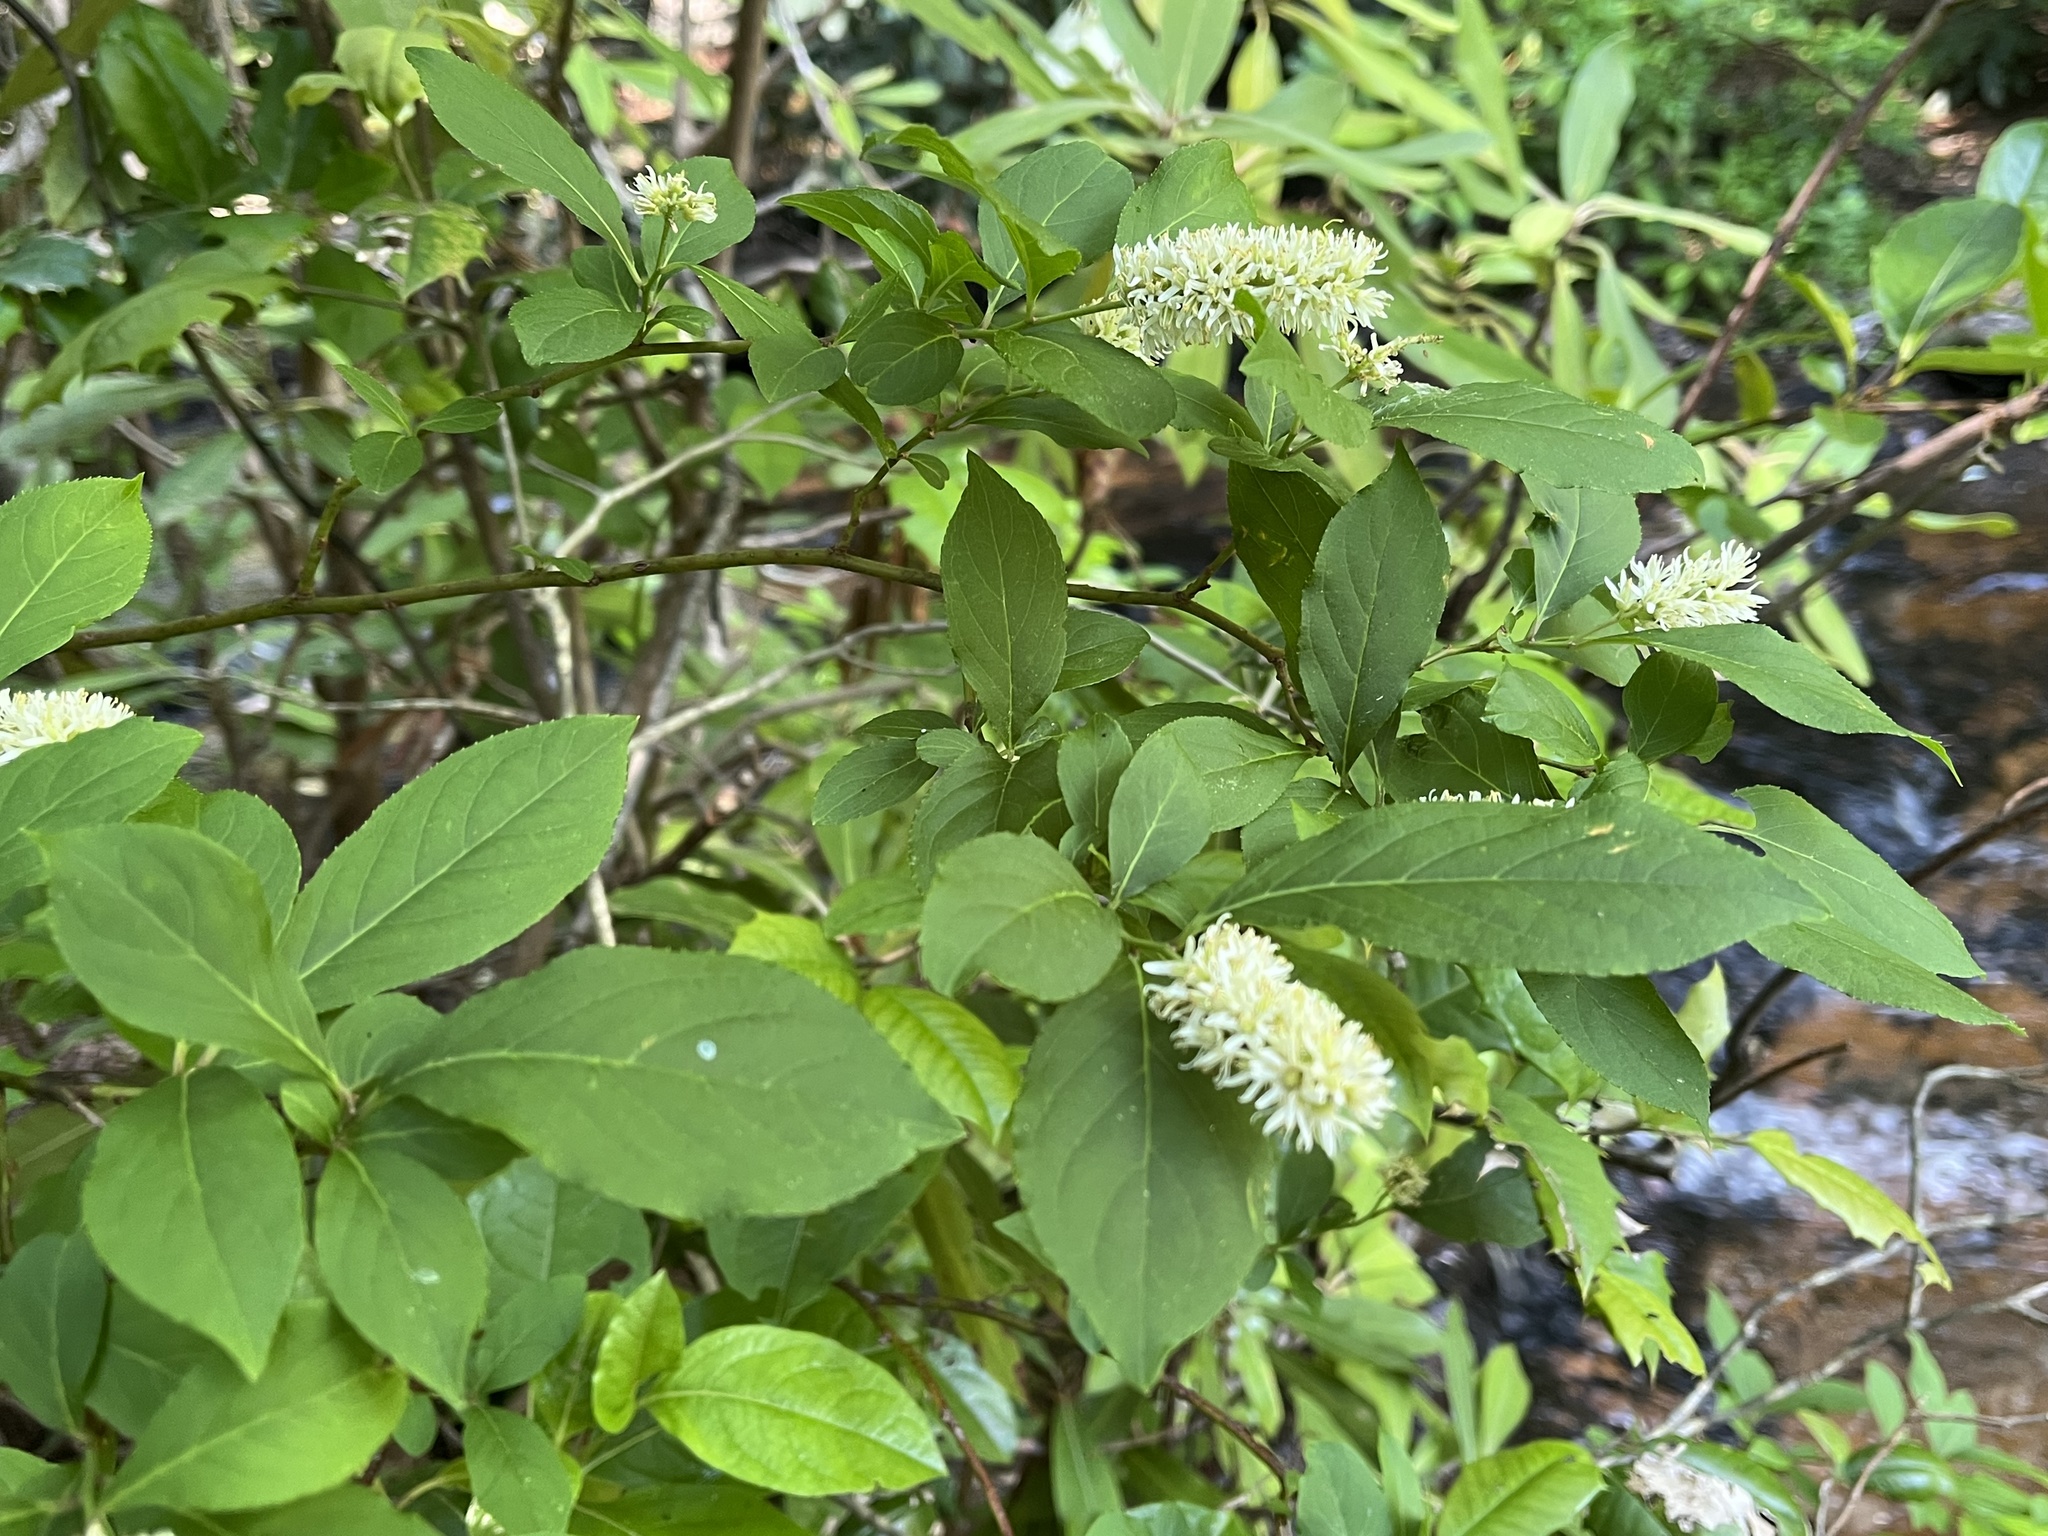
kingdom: Plantae
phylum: Tracheophyta
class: Magnoliopsida
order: Saxifragales
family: Iteaceae
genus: Itea
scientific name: Itea virginica
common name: Sweetspire
